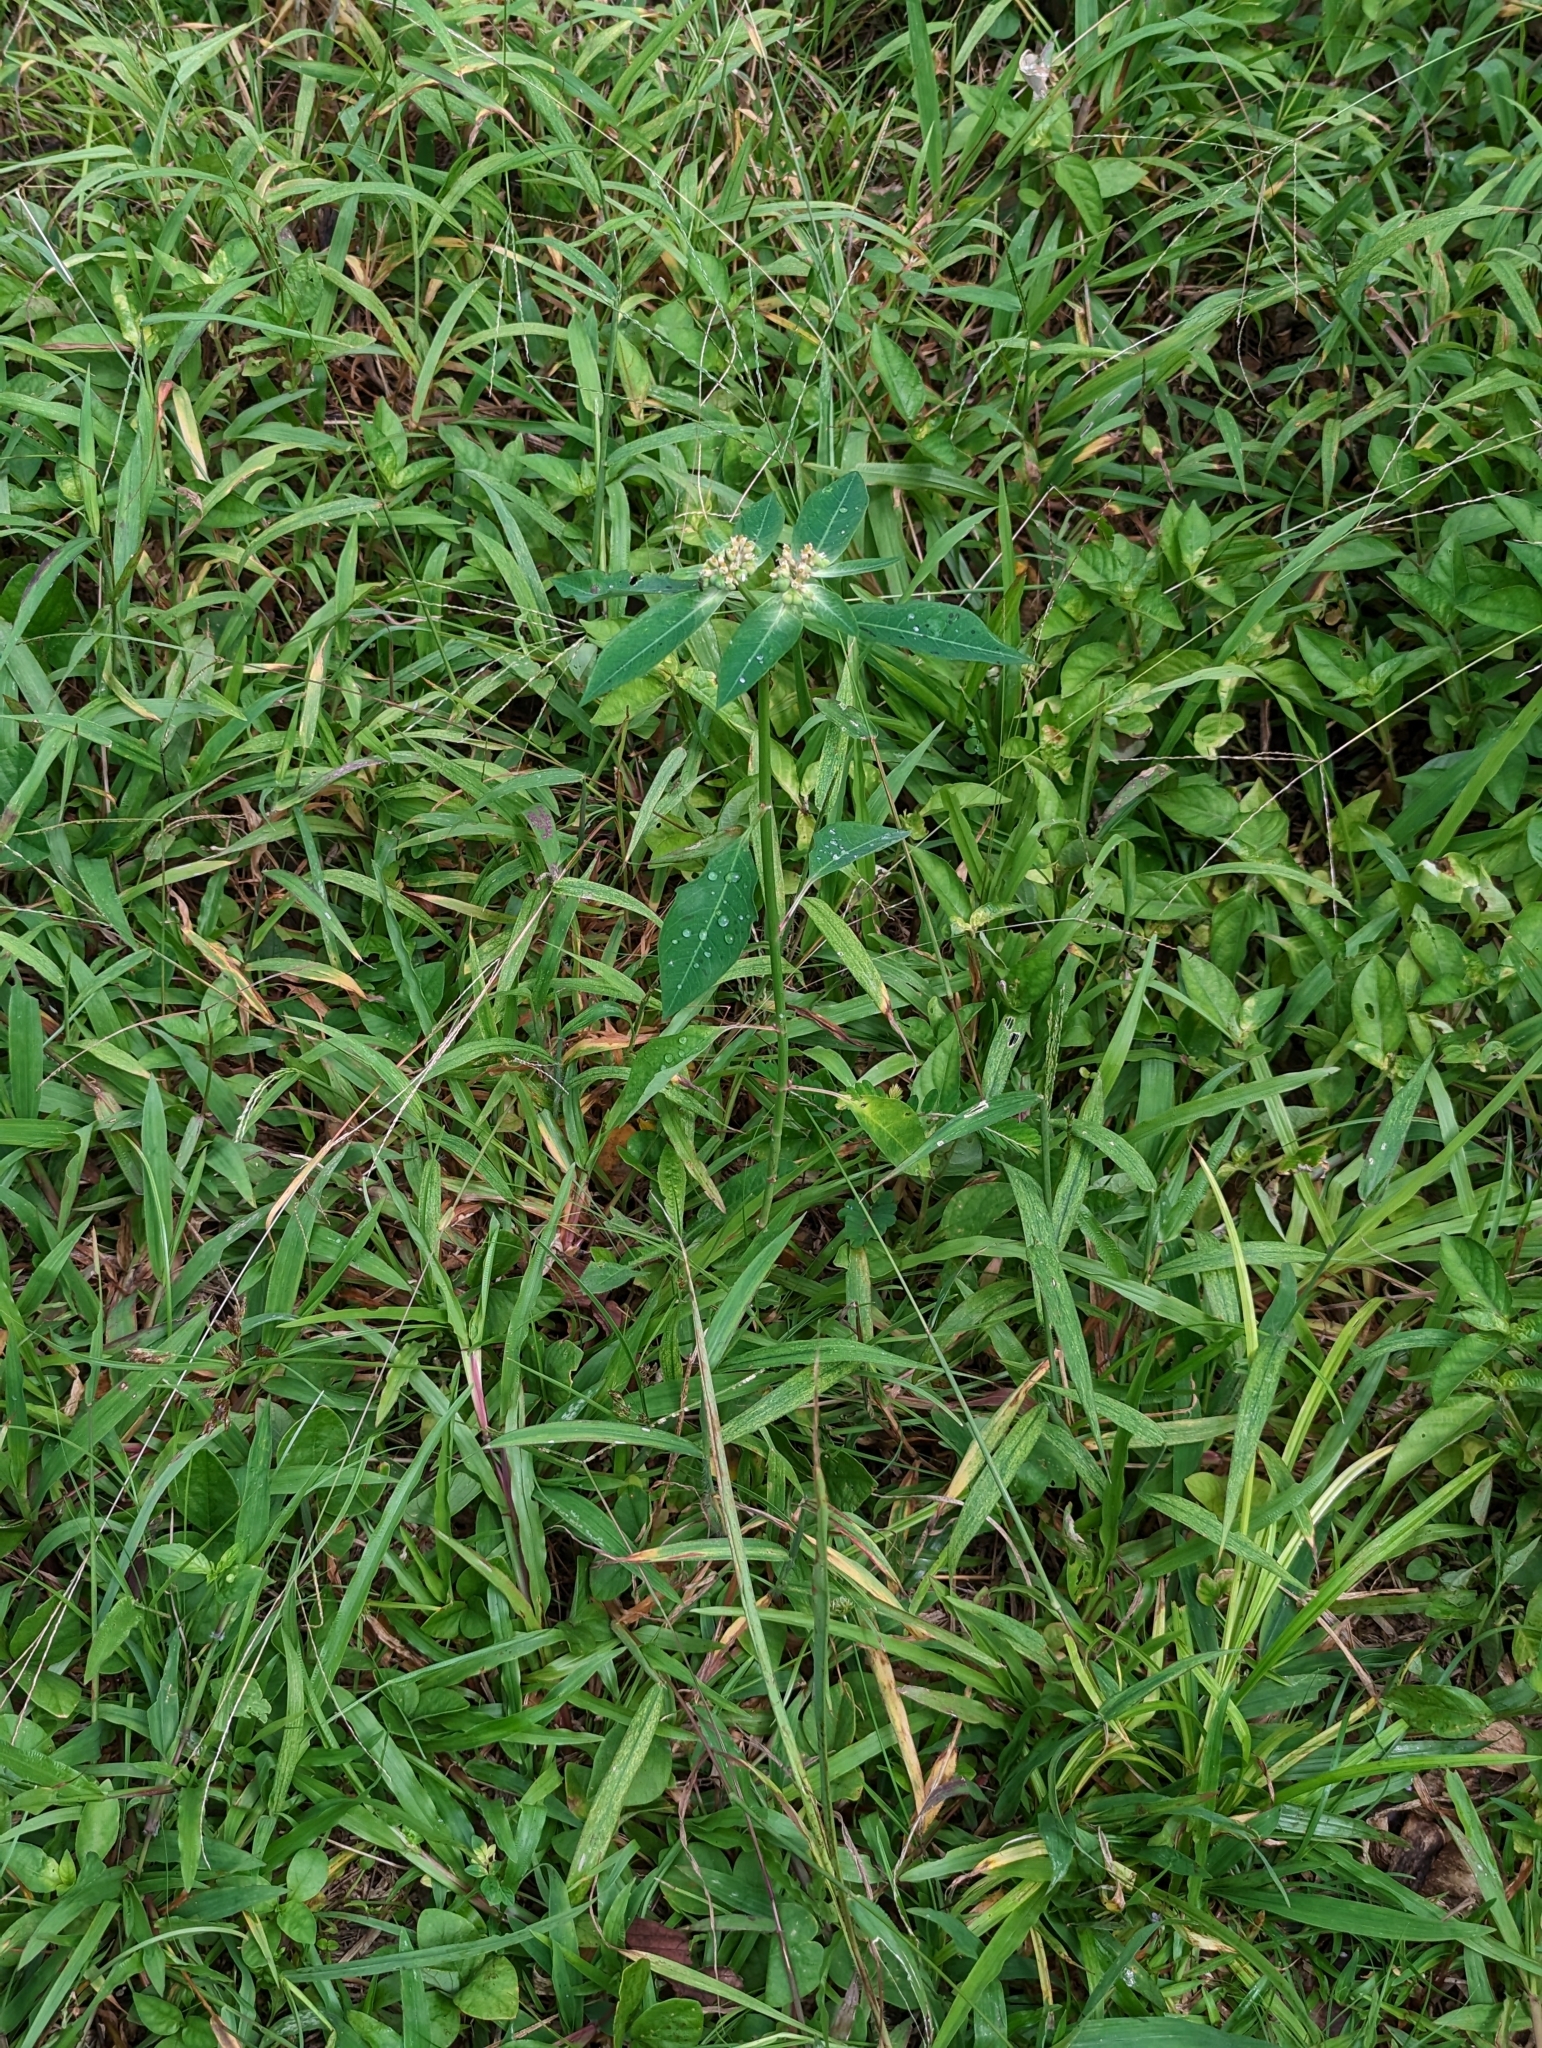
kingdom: Plantae
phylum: Tracheophyta
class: Magnoliopsida
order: Malpighiales
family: Euphorbiaceae
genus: Euphorbia
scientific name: Euphorbia heterophylla
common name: Mexican fireplant
